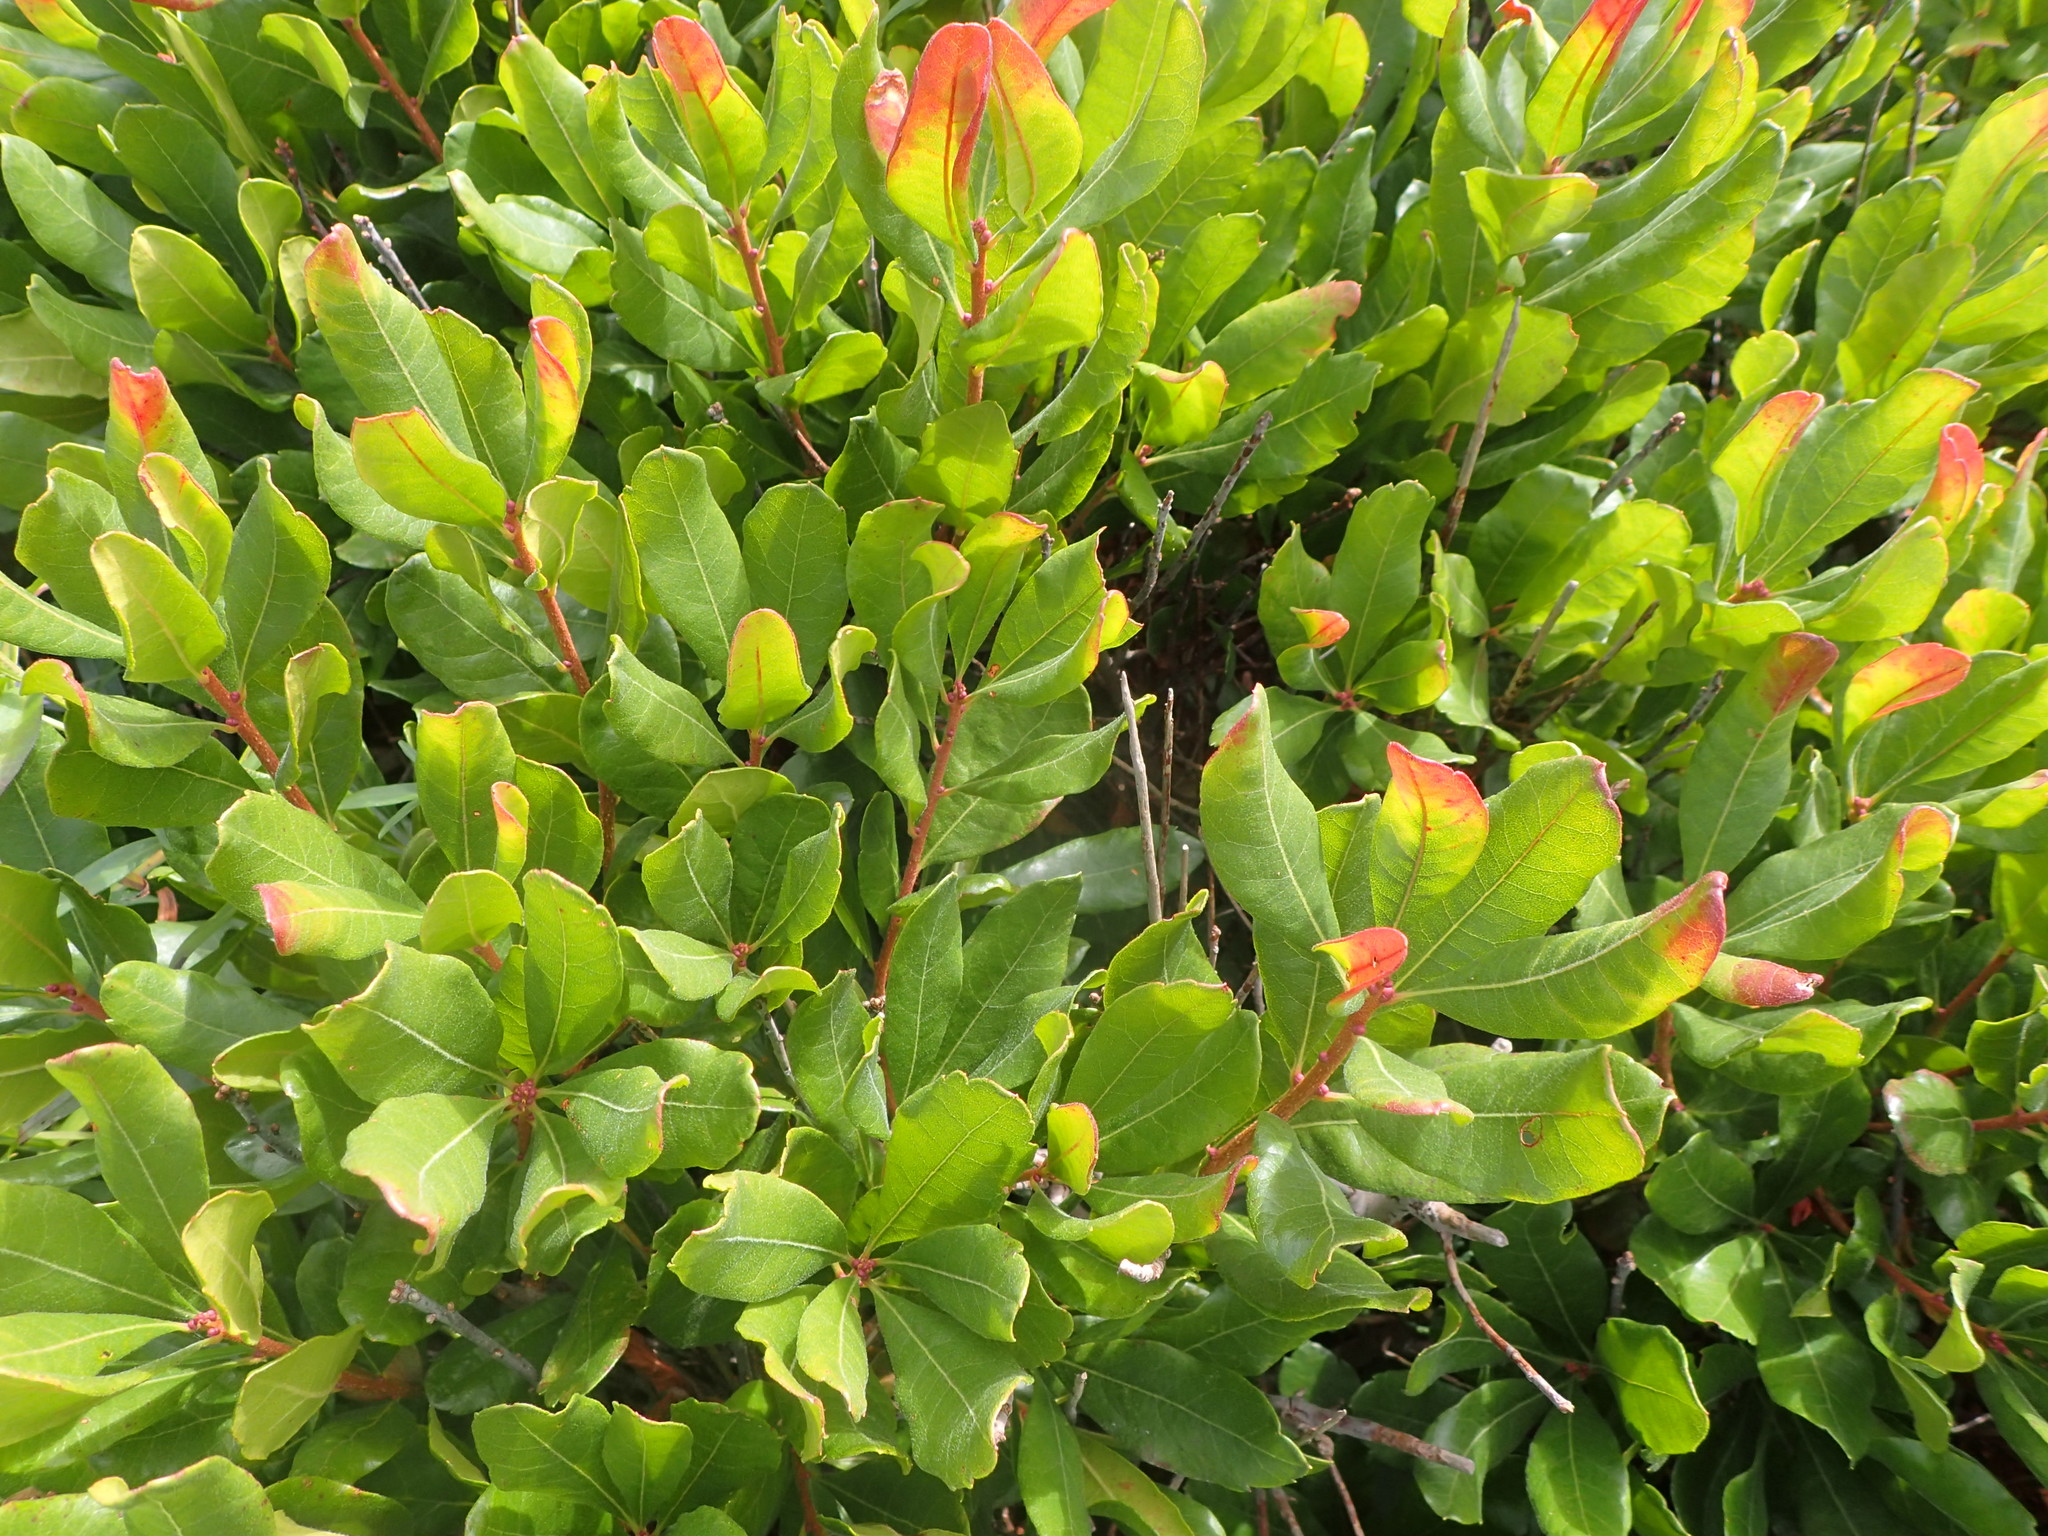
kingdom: Plantae
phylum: Tracheophyta
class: Magnoliopsida
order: Fagales
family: Myricaceae
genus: Morella
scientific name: Morella pensylvanica
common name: Northern bayberry
